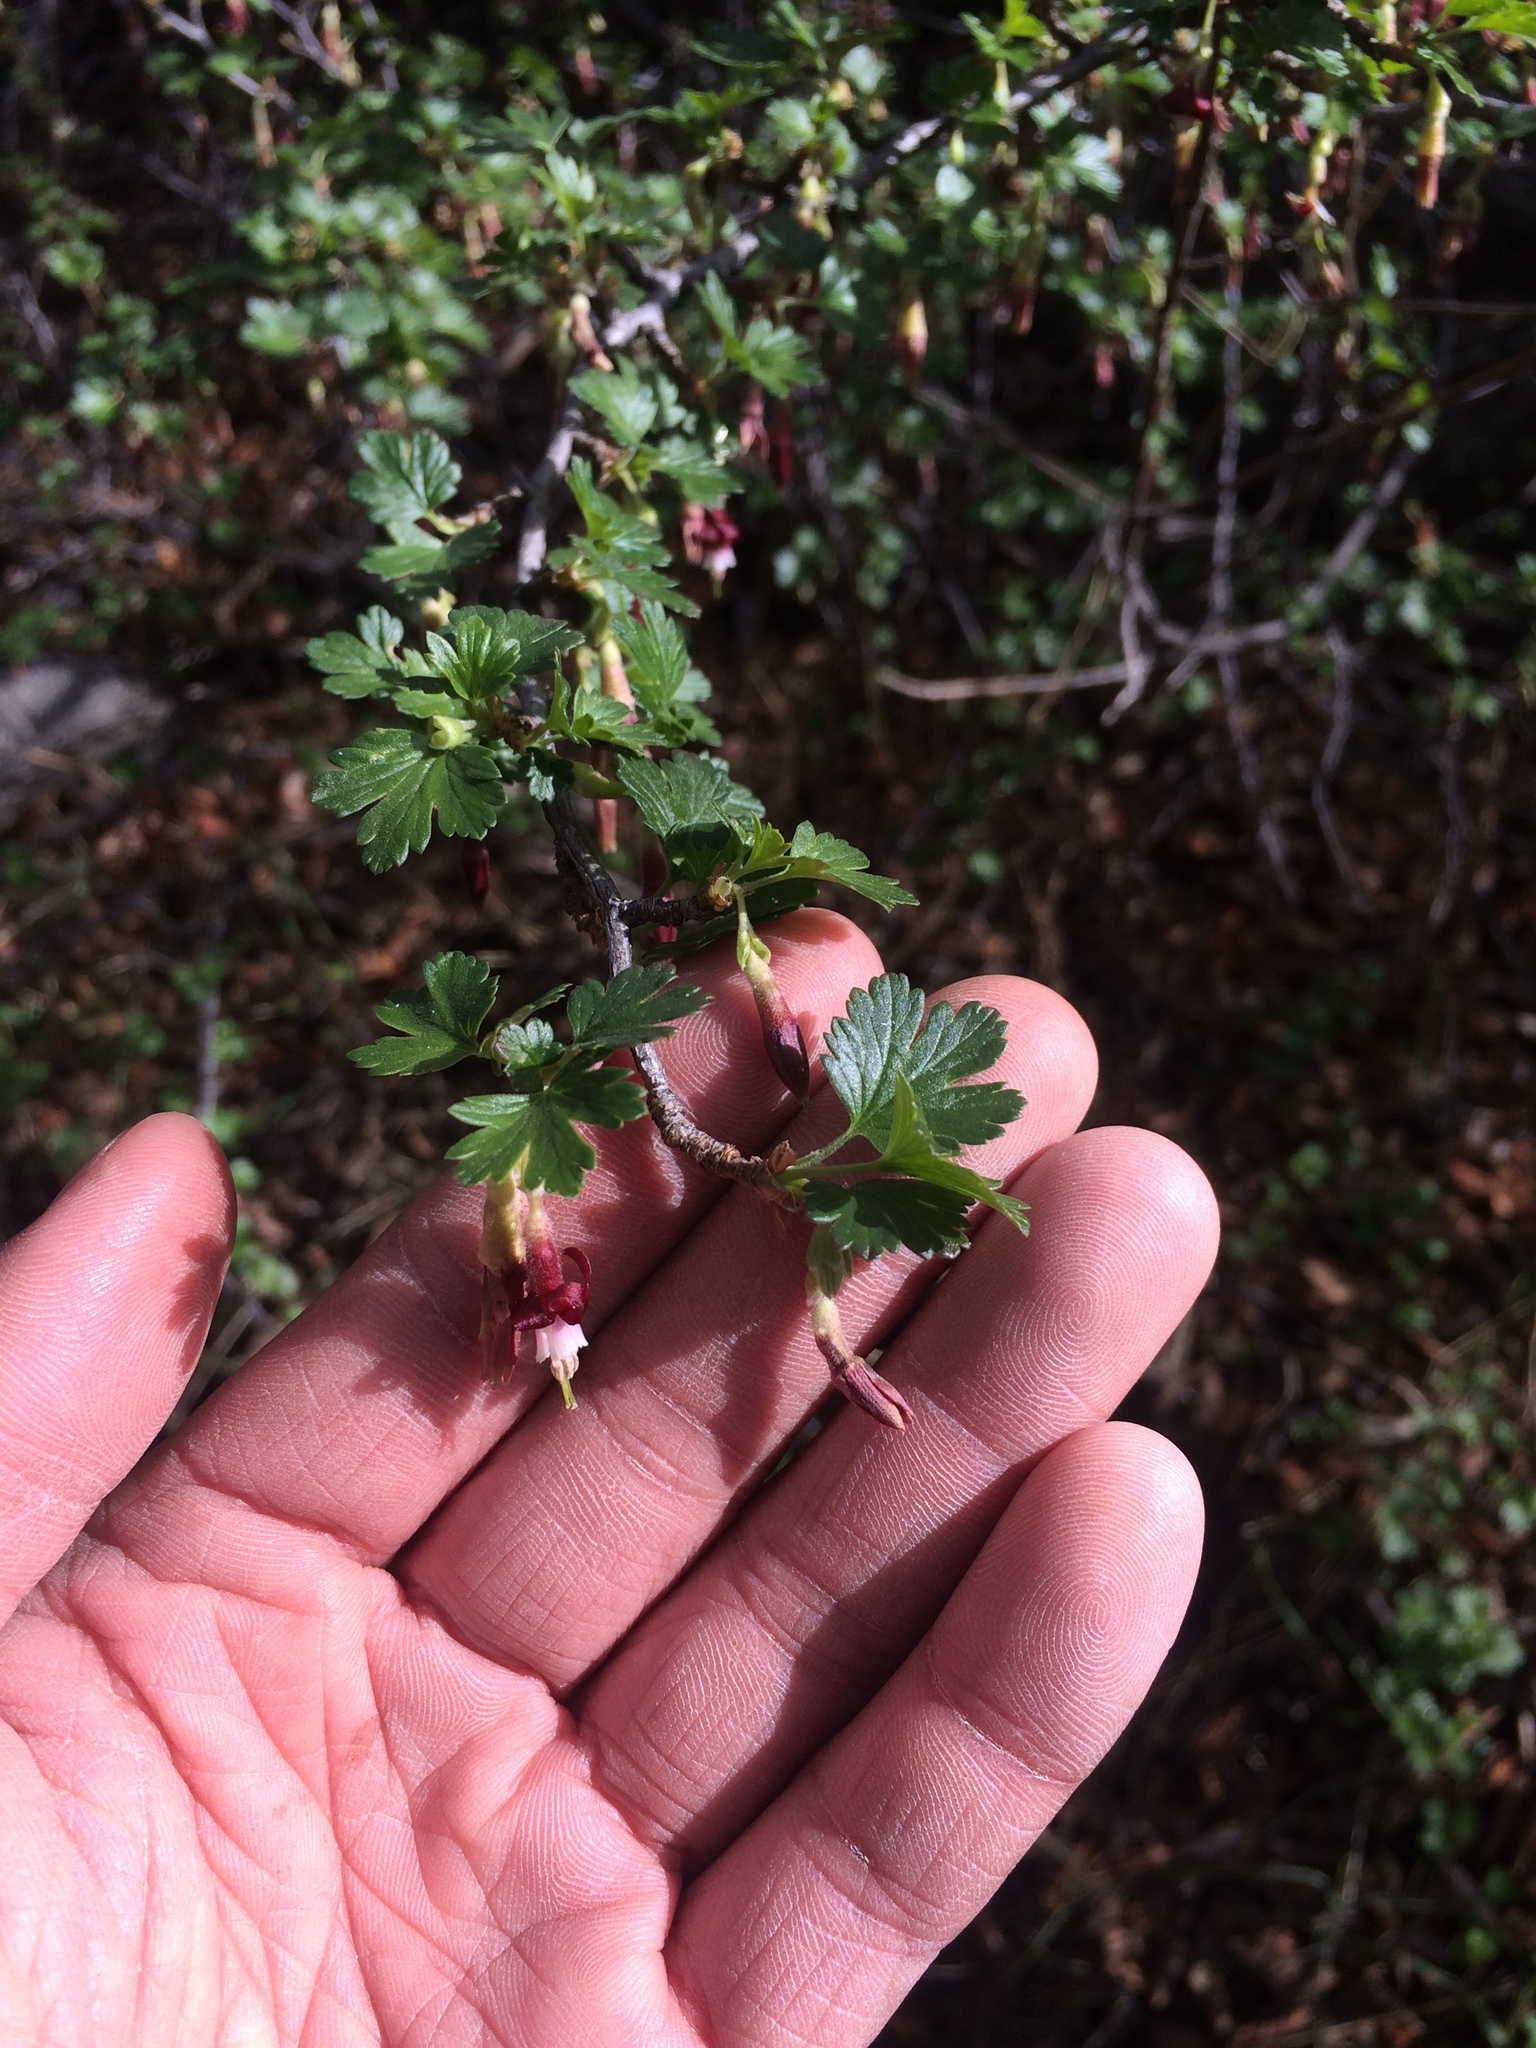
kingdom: Plantae
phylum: Tracheophyta
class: Magnoliopsida
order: Saxifragales
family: Grossulariaceae
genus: Ribes
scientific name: Ribes roezlii
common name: Sierra gooseberry
